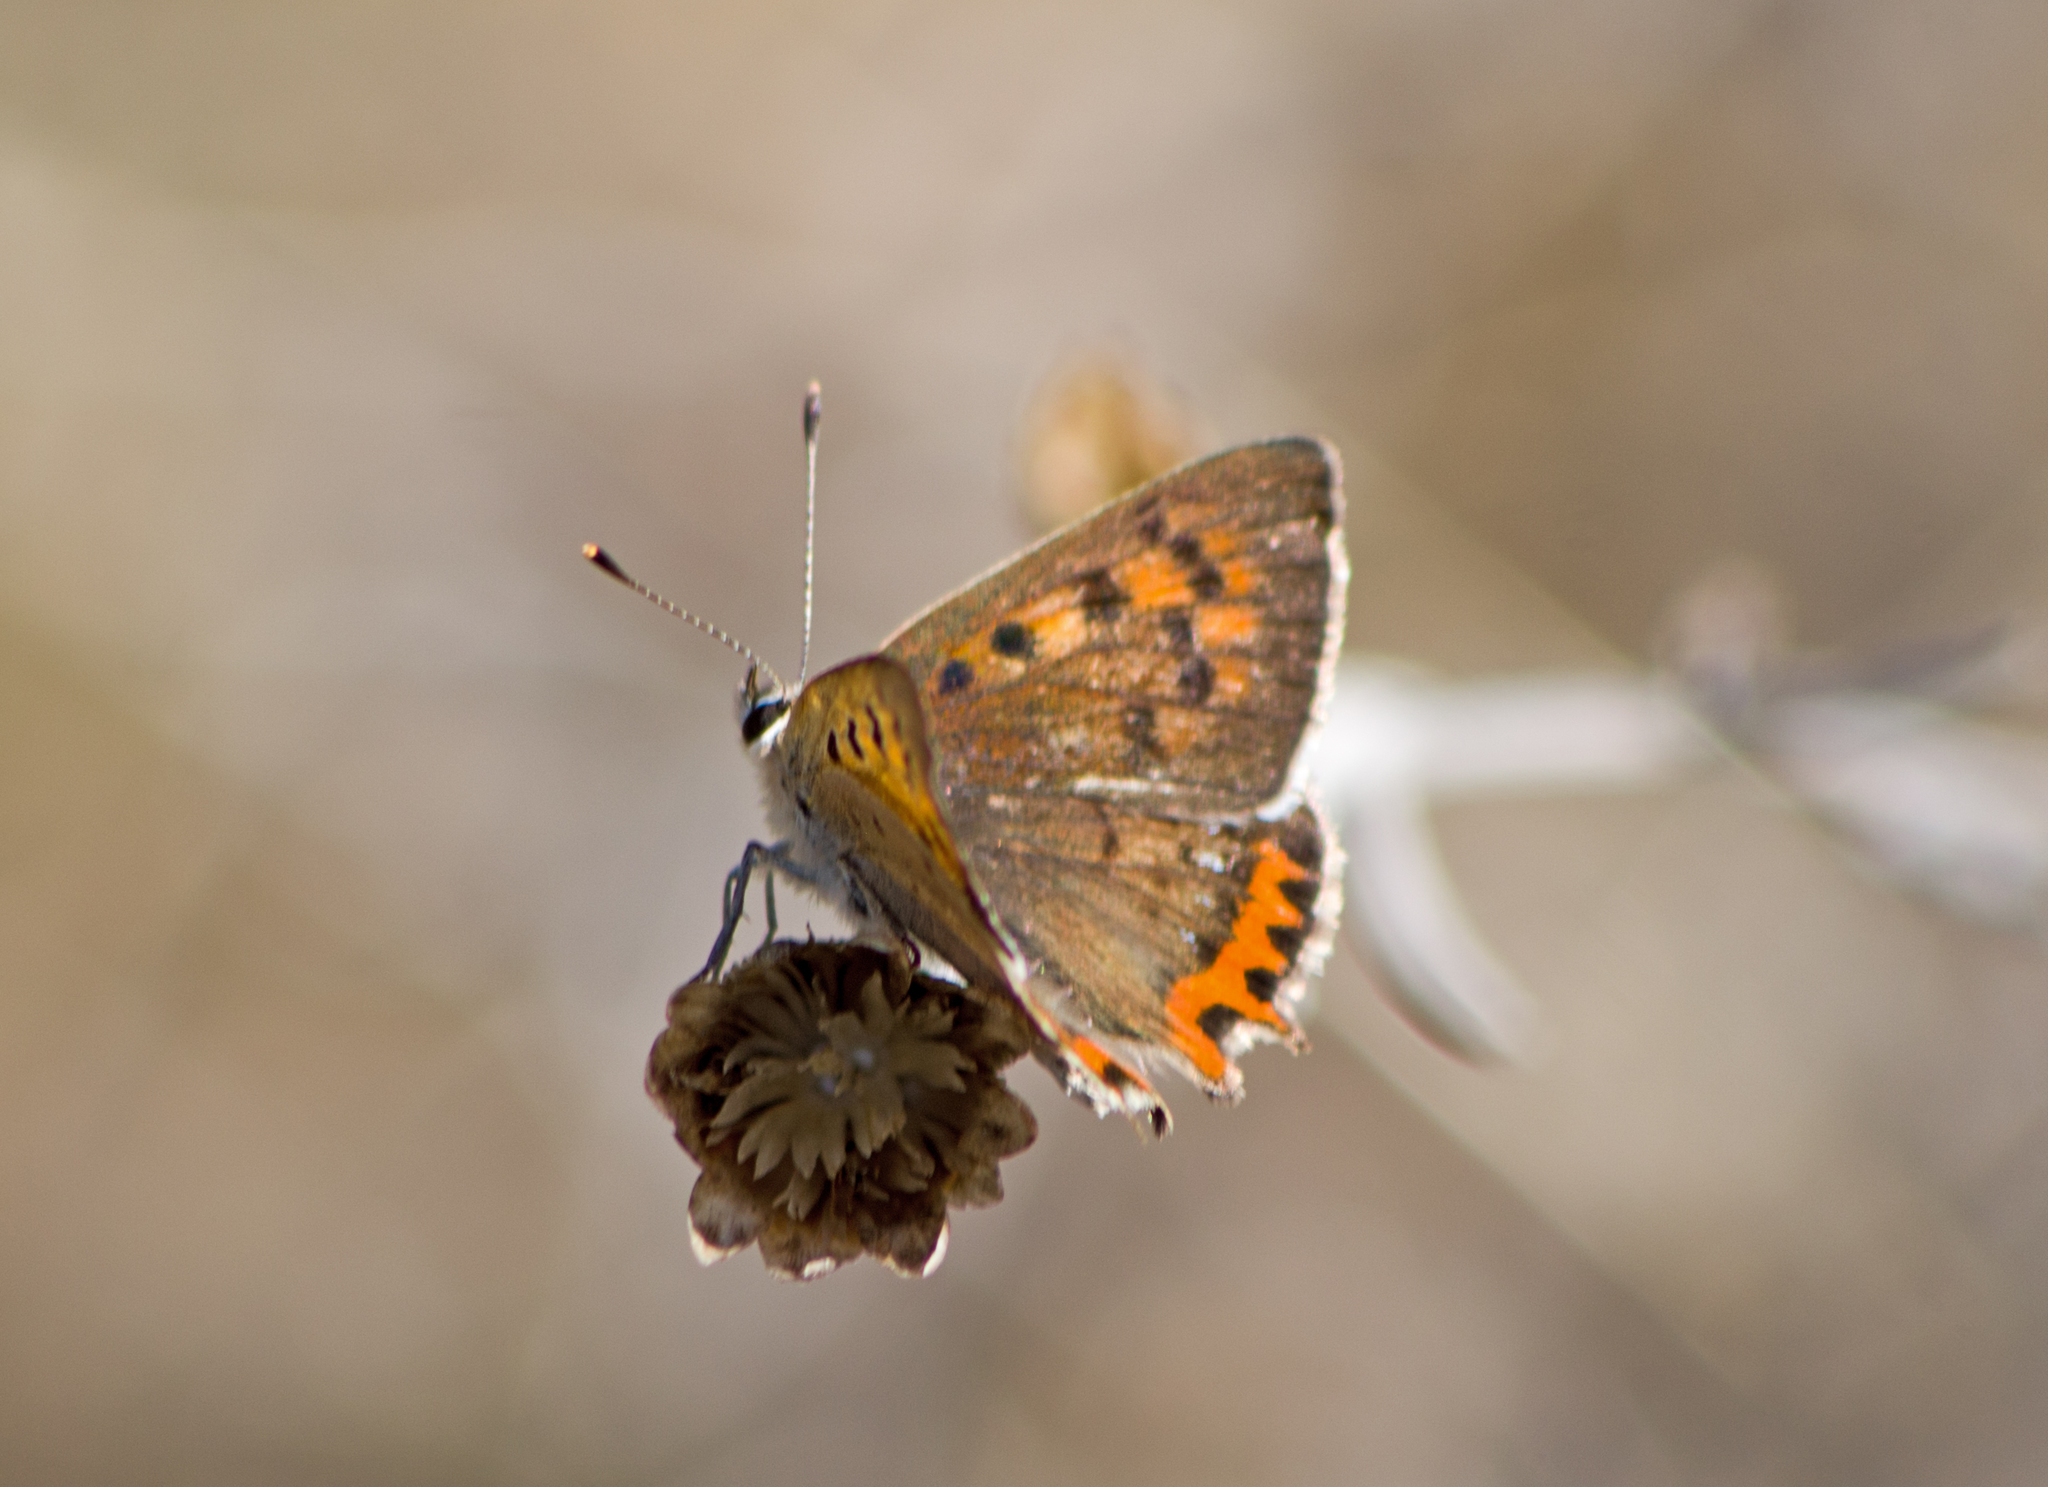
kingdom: Animalia
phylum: Arthropoda
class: Insecta
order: Lepidoptera
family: Lycaenidae
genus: Lycaena
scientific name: Lycaena phlaeas
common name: Small copper
